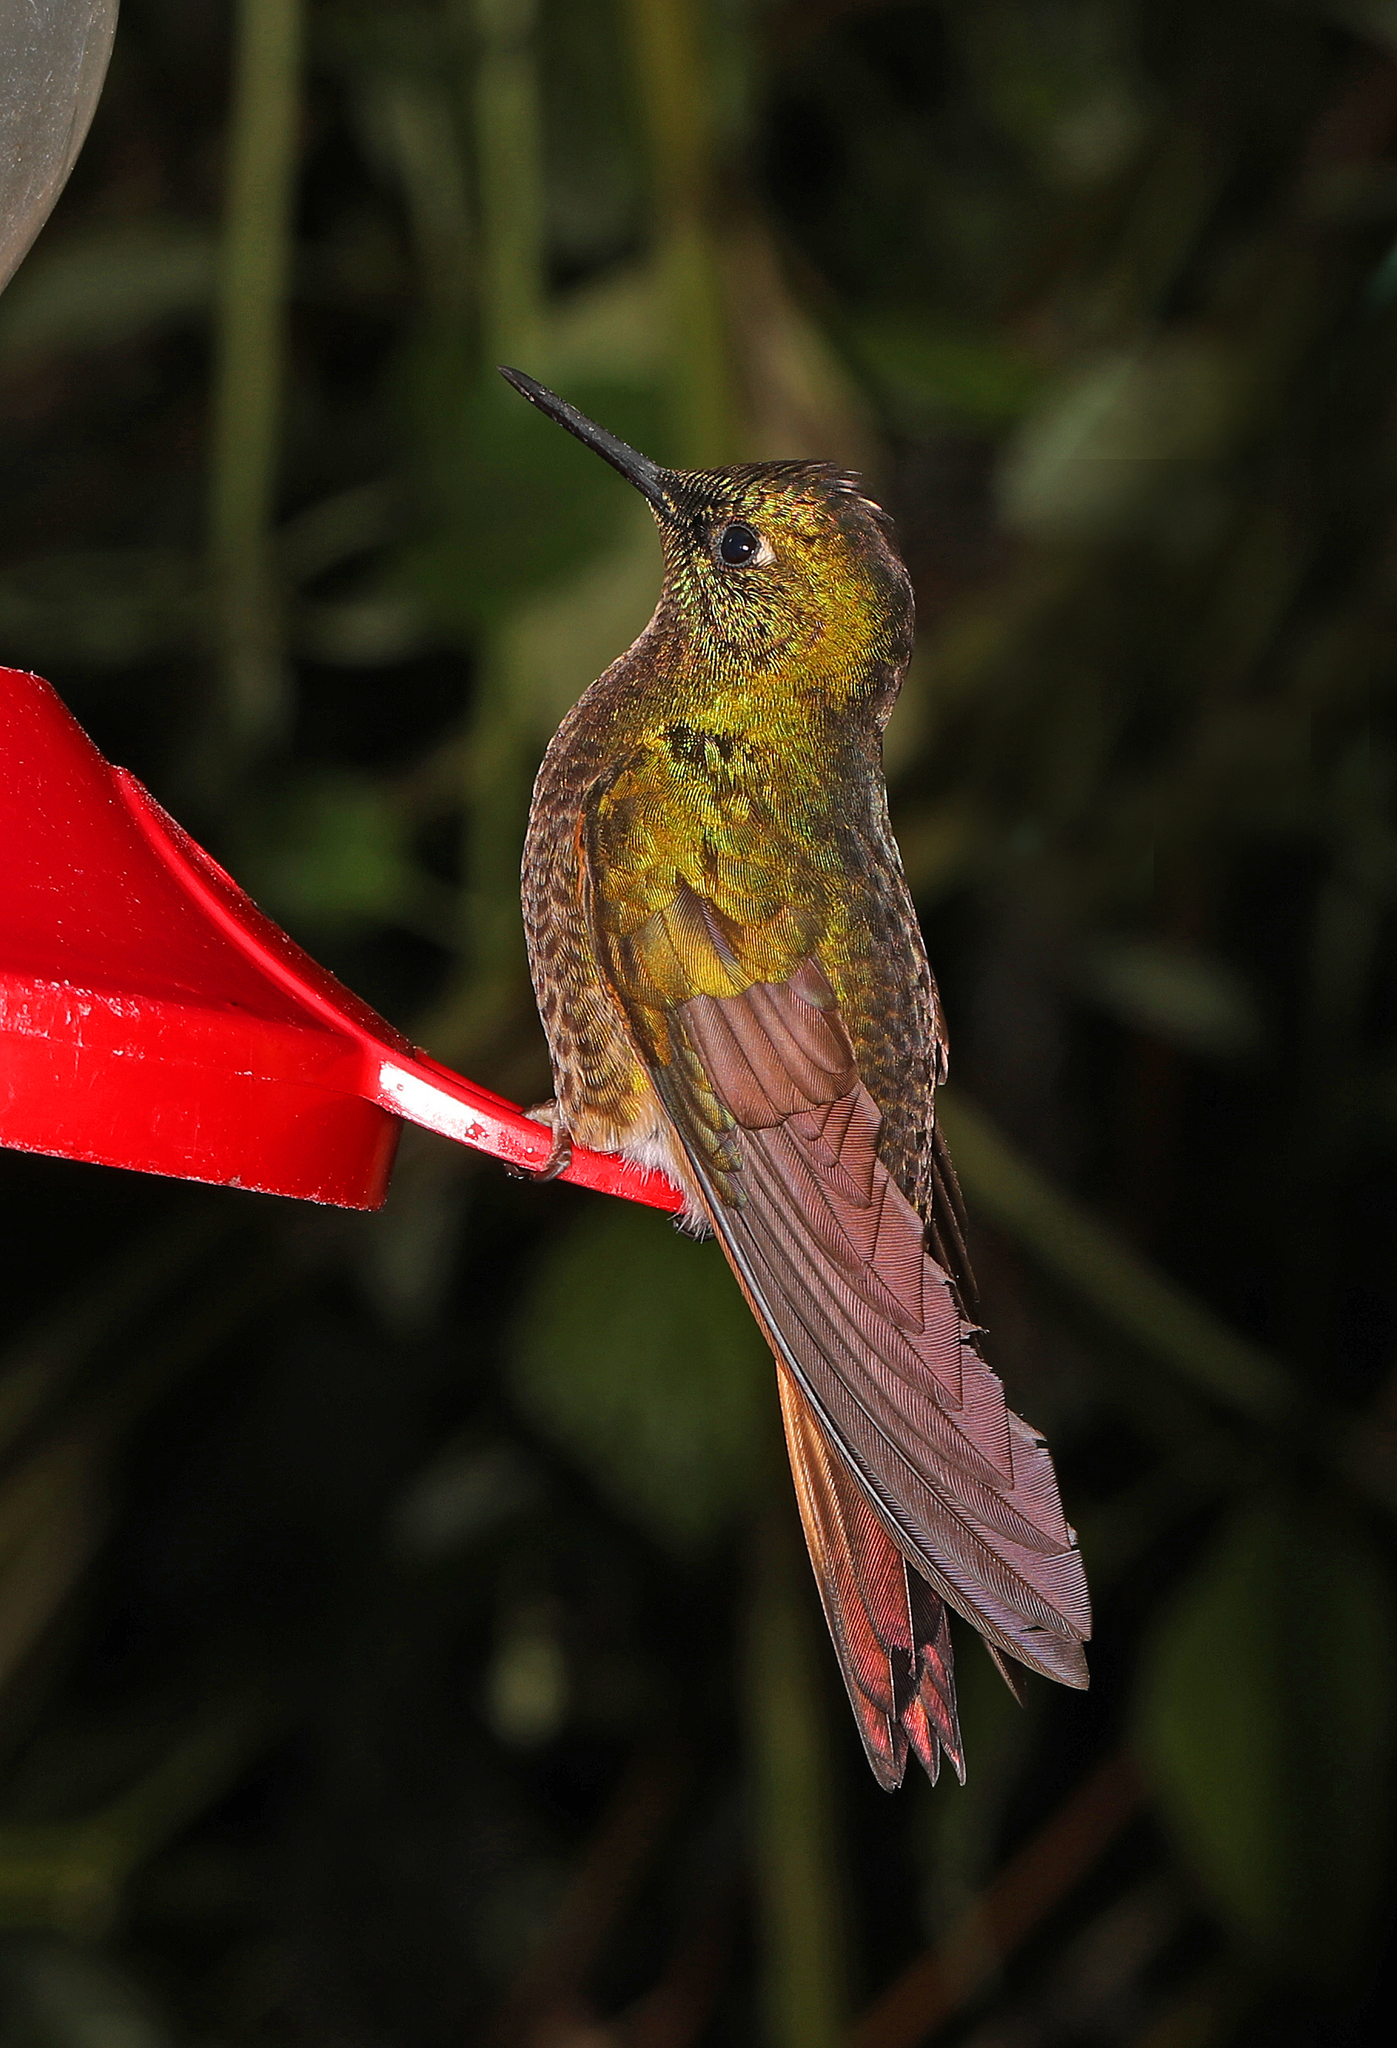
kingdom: Animalia
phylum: Chordata
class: Aves
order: Apodiformes
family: Trochilidae
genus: Boissonneaua
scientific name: Boissonneaua flavescens
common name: Buff-tailed coronet
